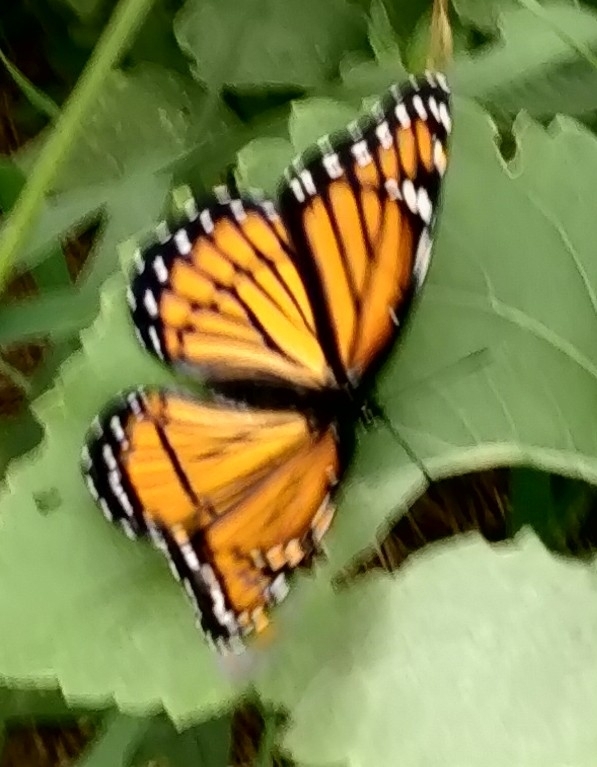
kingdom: Animalia
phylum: Arthropoda
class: Insecta
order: Lepidoptera
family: Nymphalidae
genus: Limenitis
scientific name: Limenitis archippus
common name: Viceroy
